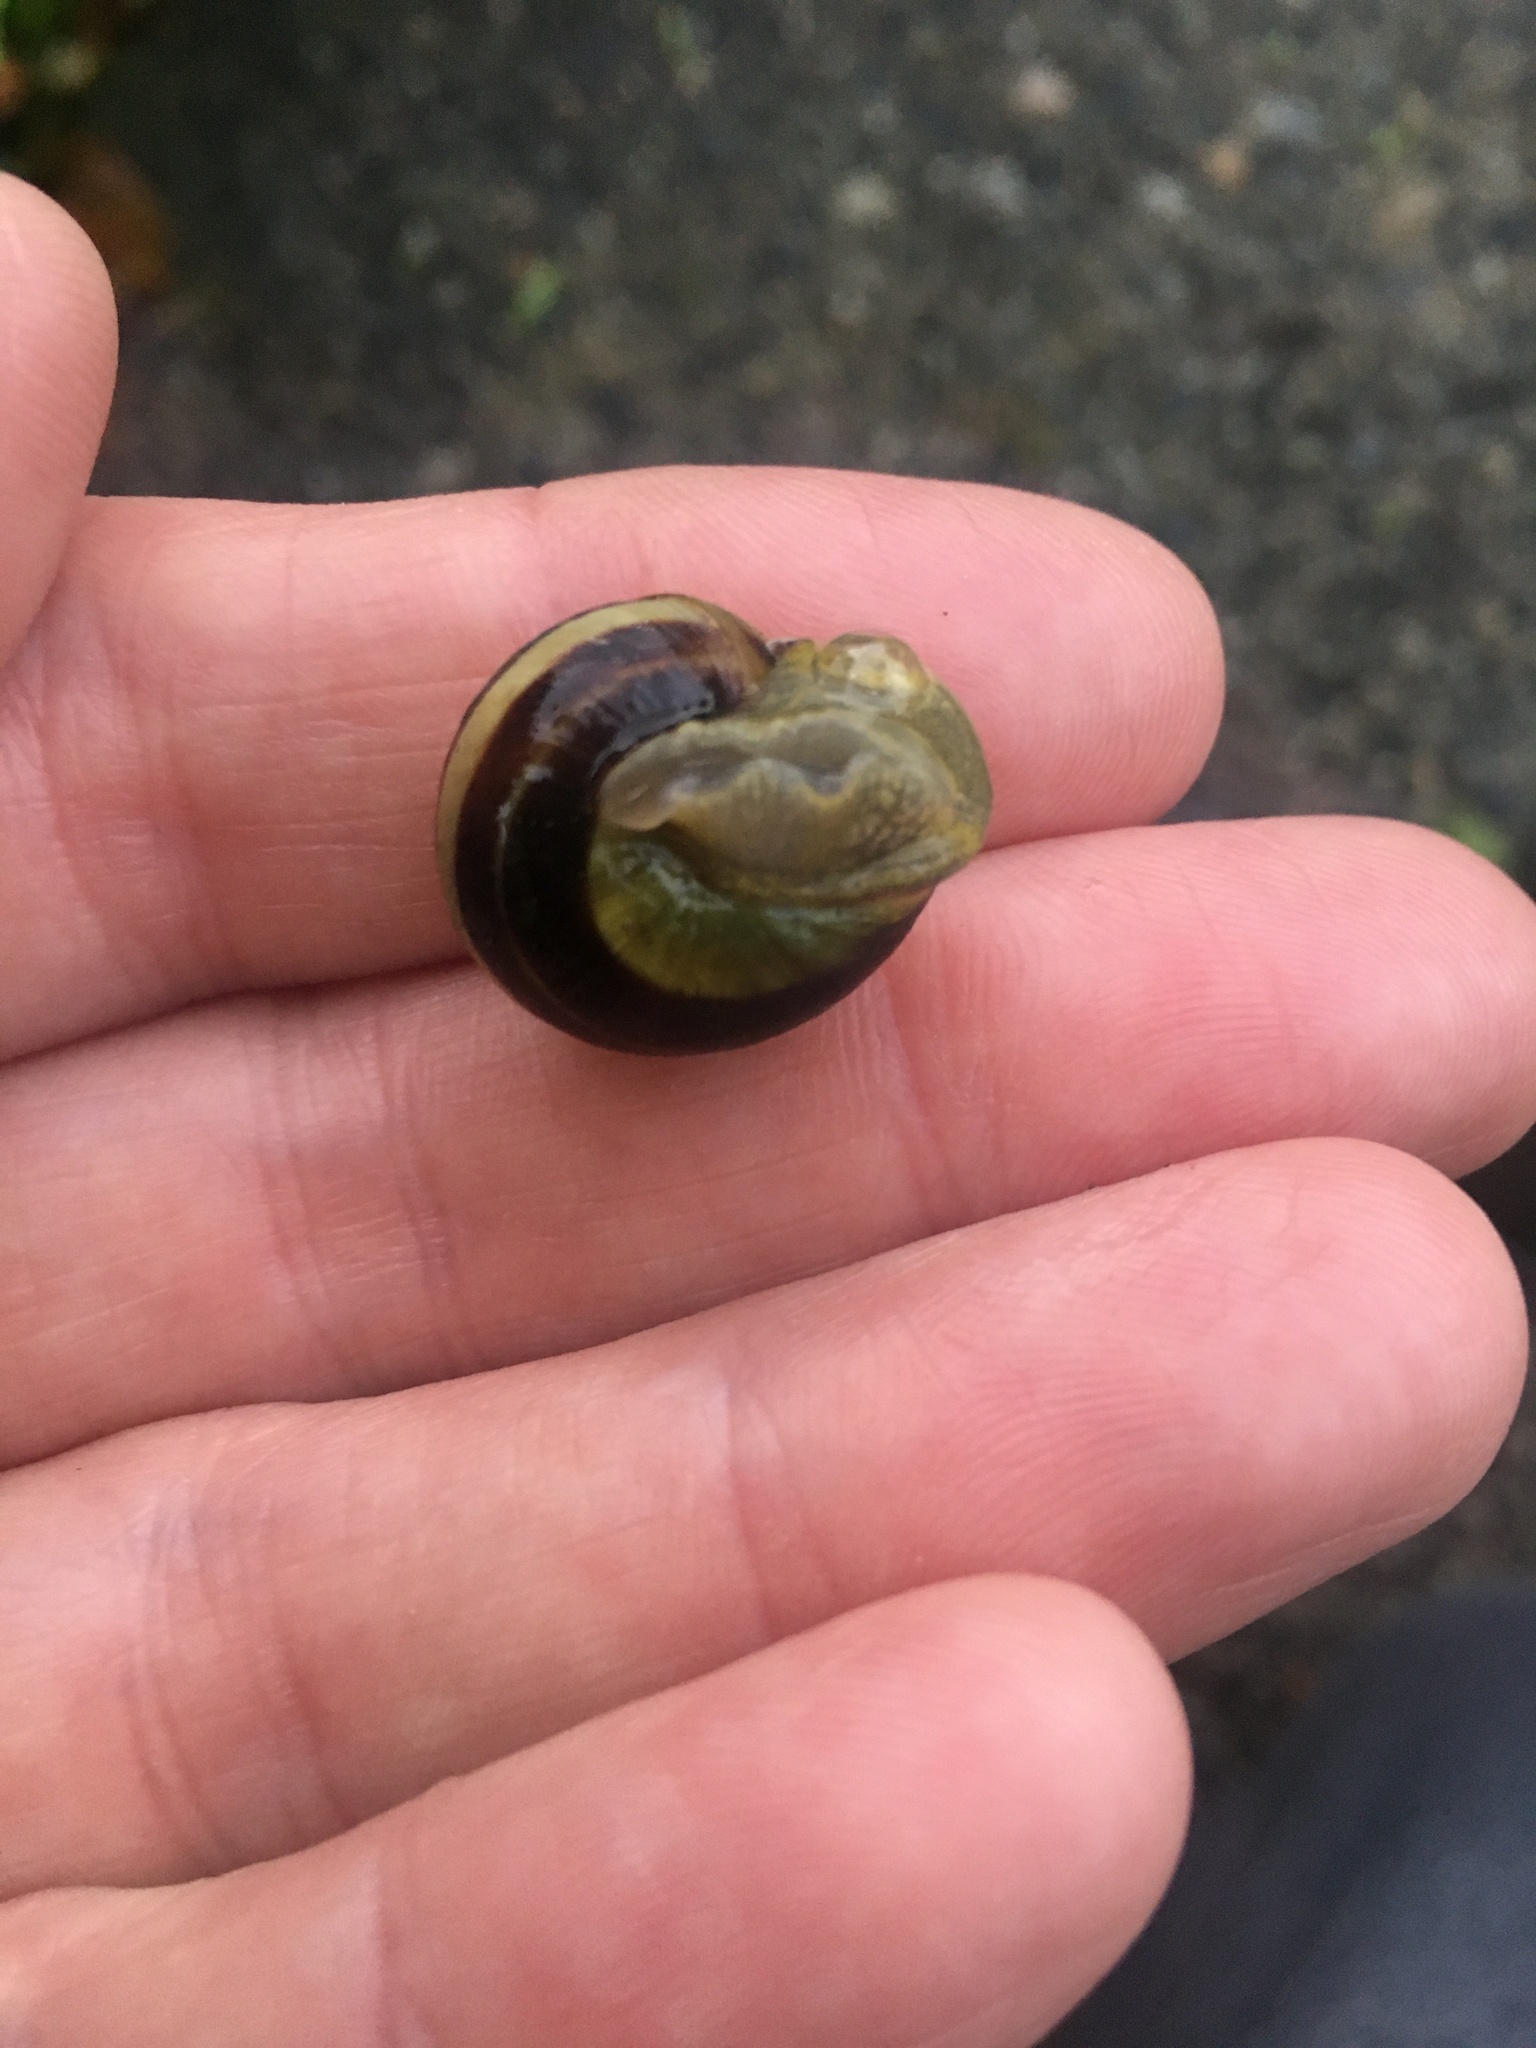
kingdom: Animalia
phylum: Mollusca
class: Gastropoda
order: Stylommatophora
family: Helicidae
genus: Cepaea
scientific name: Cepaea nemoralis
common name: Grovesnail
